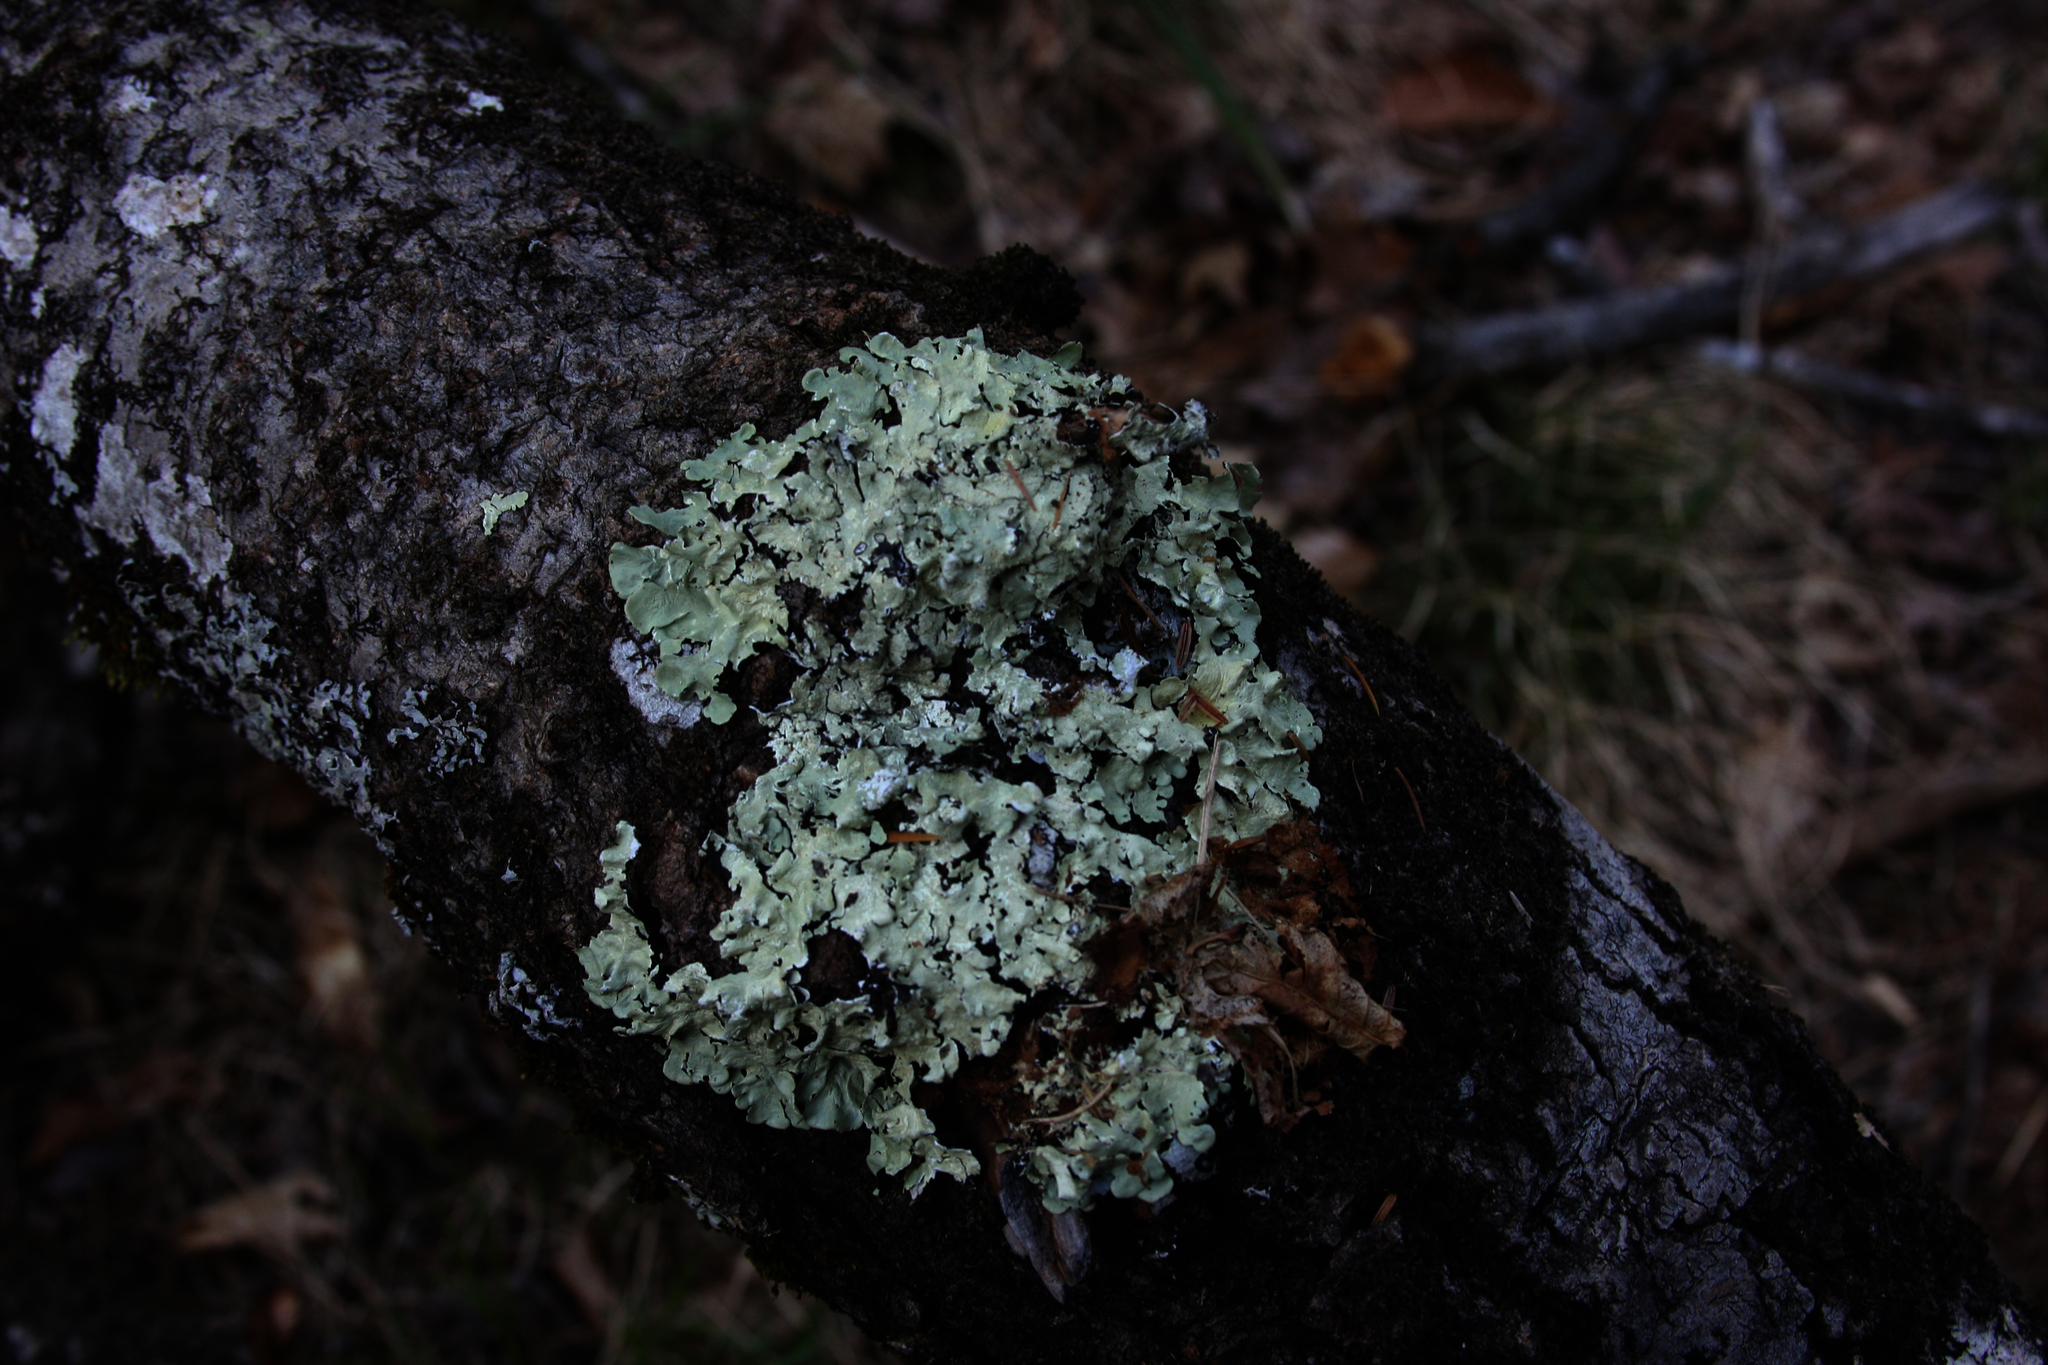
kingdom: Fungi
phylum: Ascomycota
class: Lecanoromycetes
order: Lecanorales
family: Parmeliaceae
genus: Flavoparmelia
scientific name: Flavoparmelia caperata
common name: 40-mile per hour lichen
